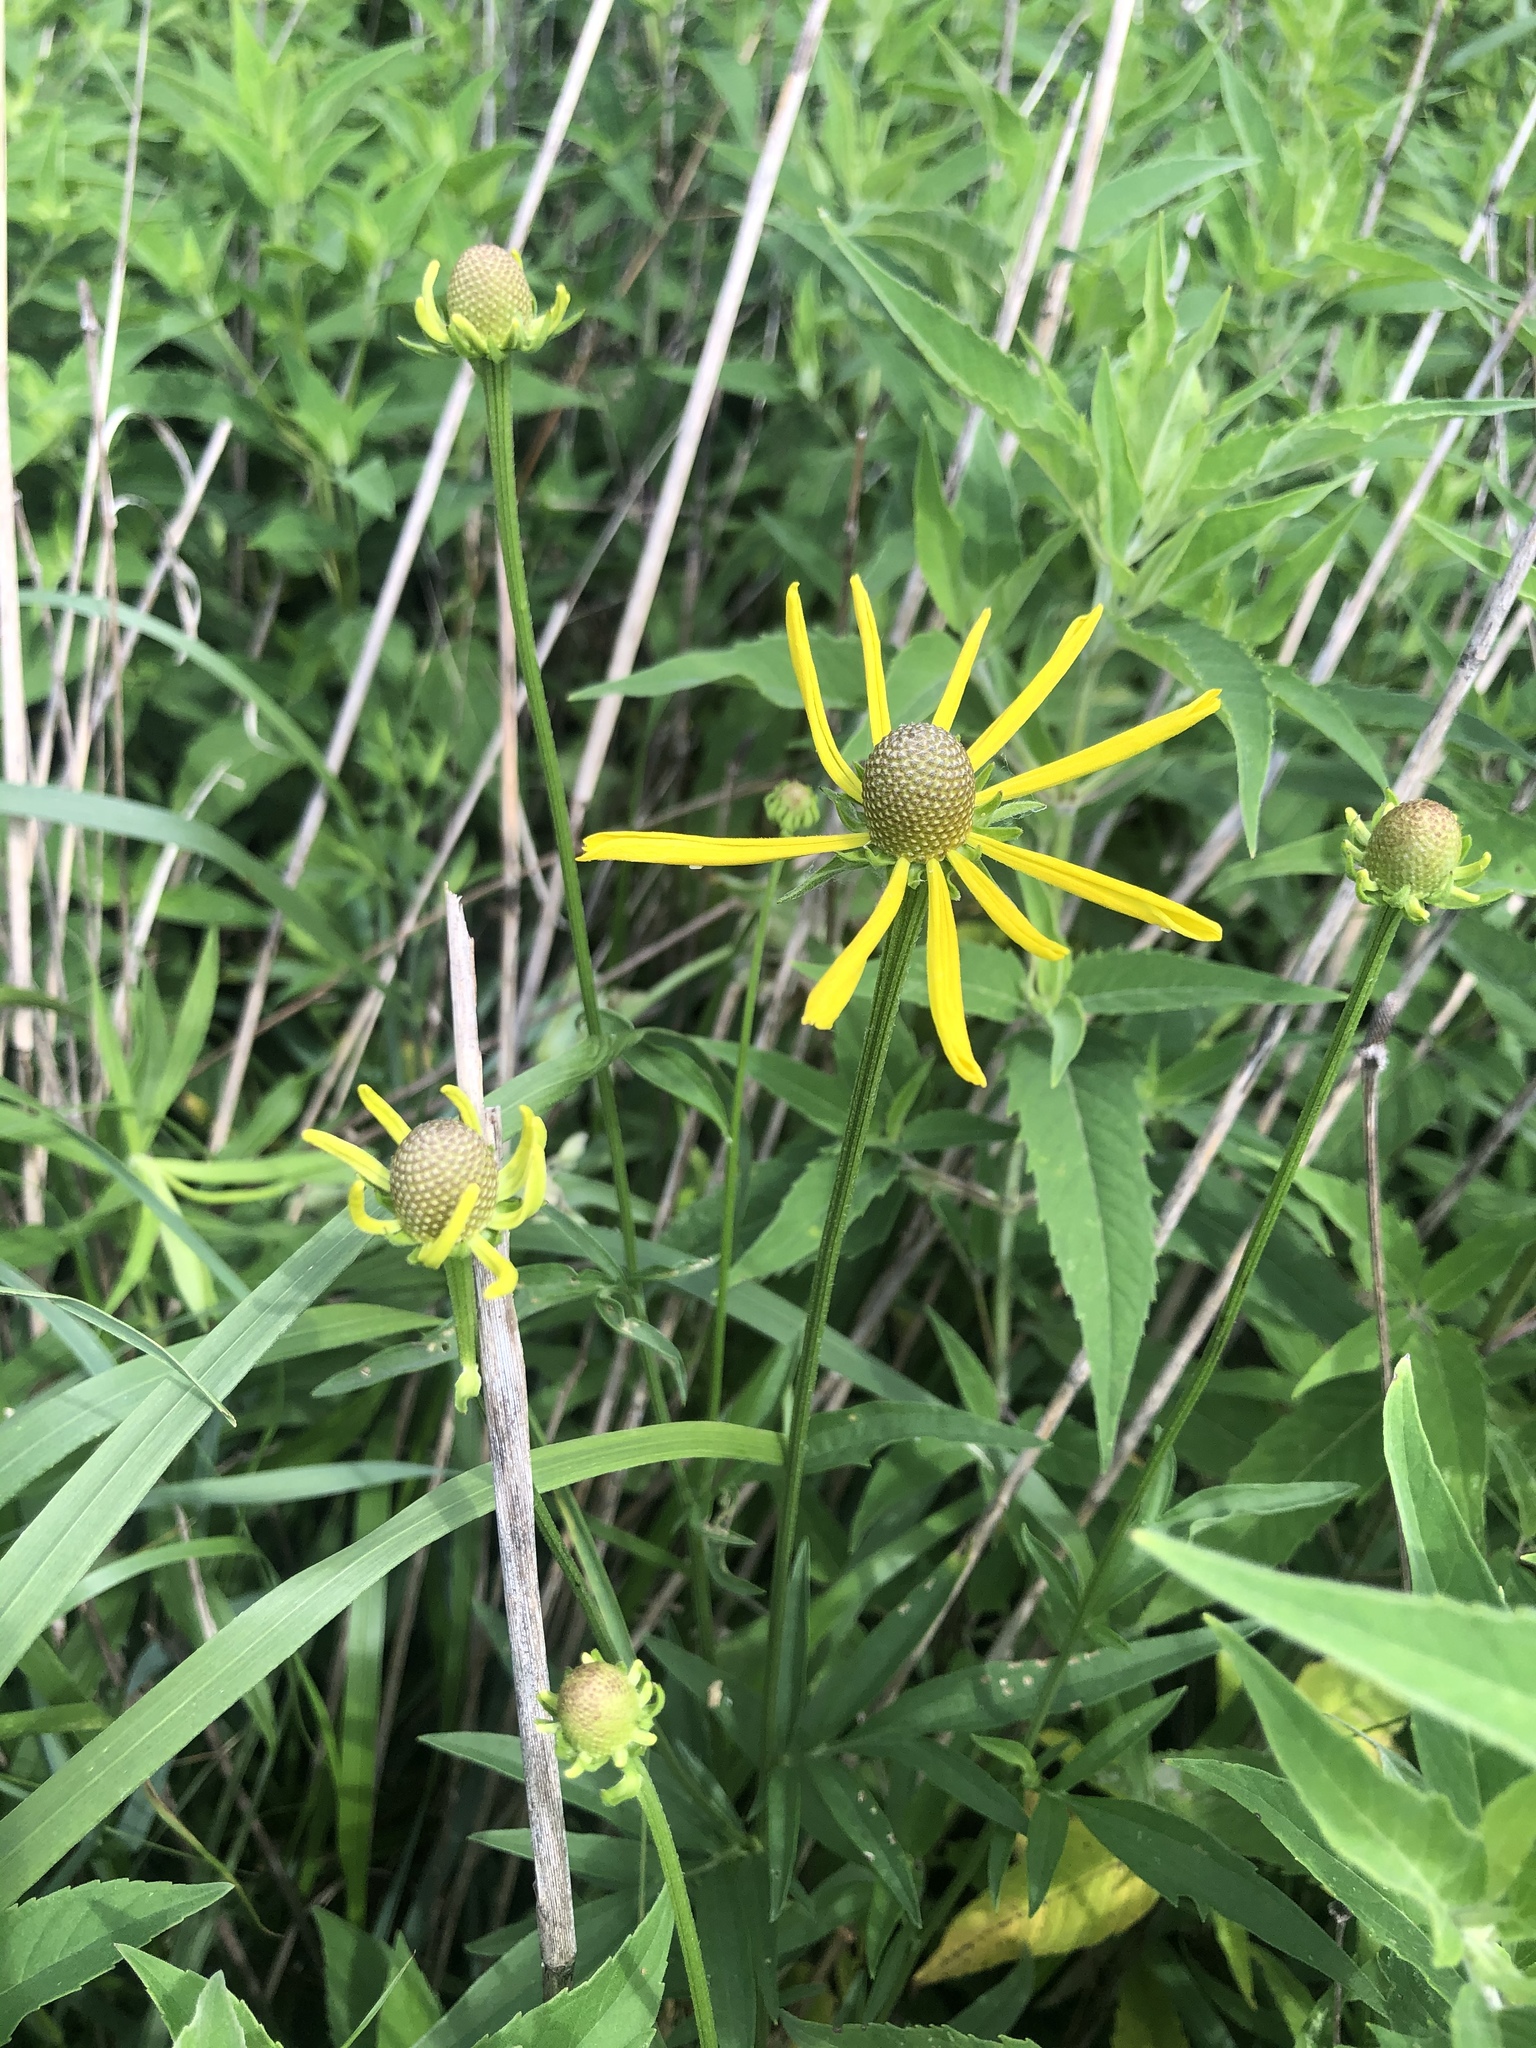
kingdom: Plantae
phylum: Tracheophyta
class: Magnoliopsida
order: Asterales
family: Asteraceae
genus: Ratibida
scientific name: Ratibida pinnata
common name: Drooping prairie-coneflower
